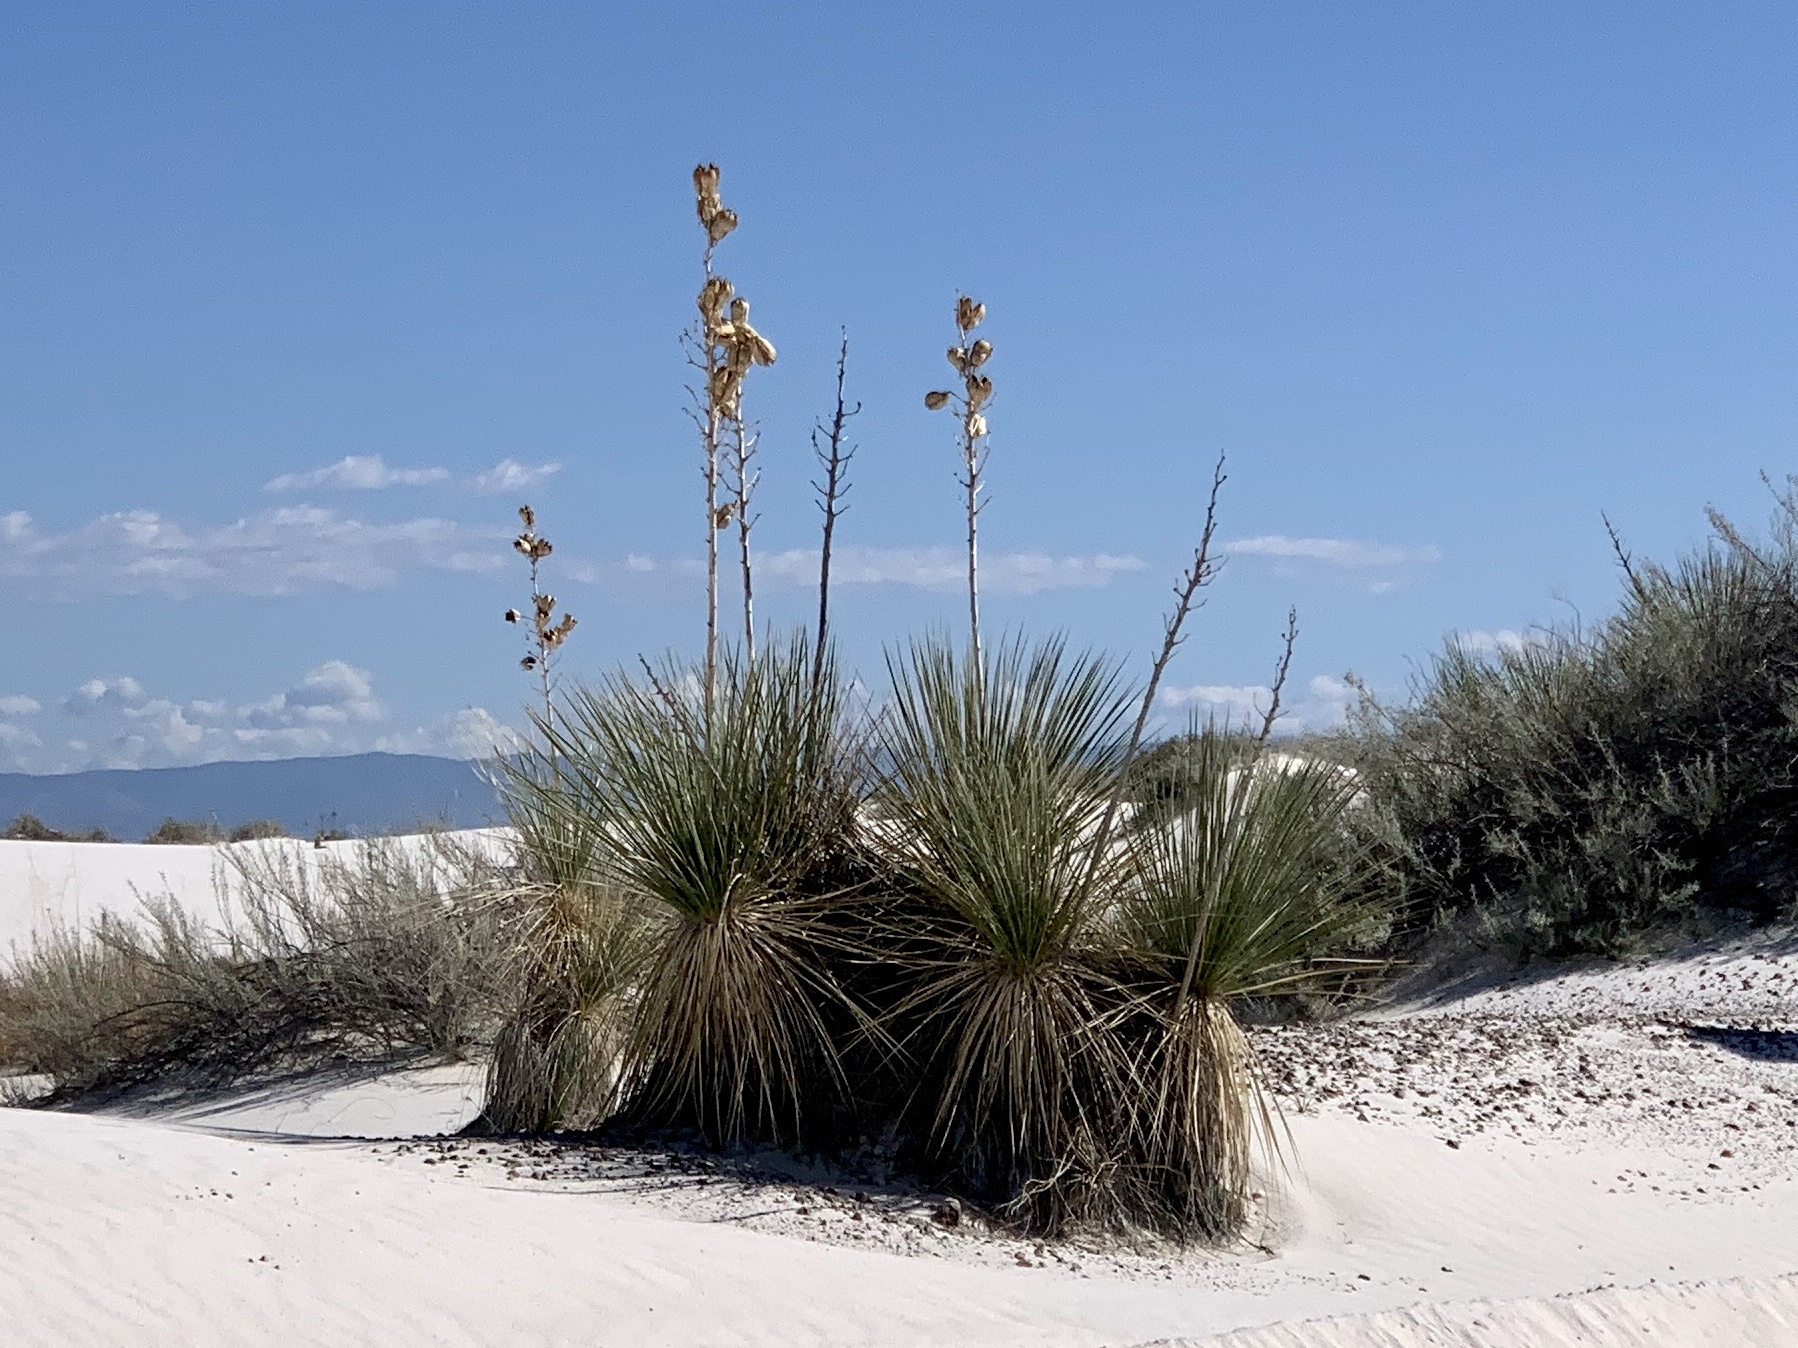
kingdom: Plantae
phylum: Tracheophyta
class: Liliopsida
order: Asparagales
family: Asparagaceae
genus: Yucca
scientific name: Yucca elata
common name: Palmella
